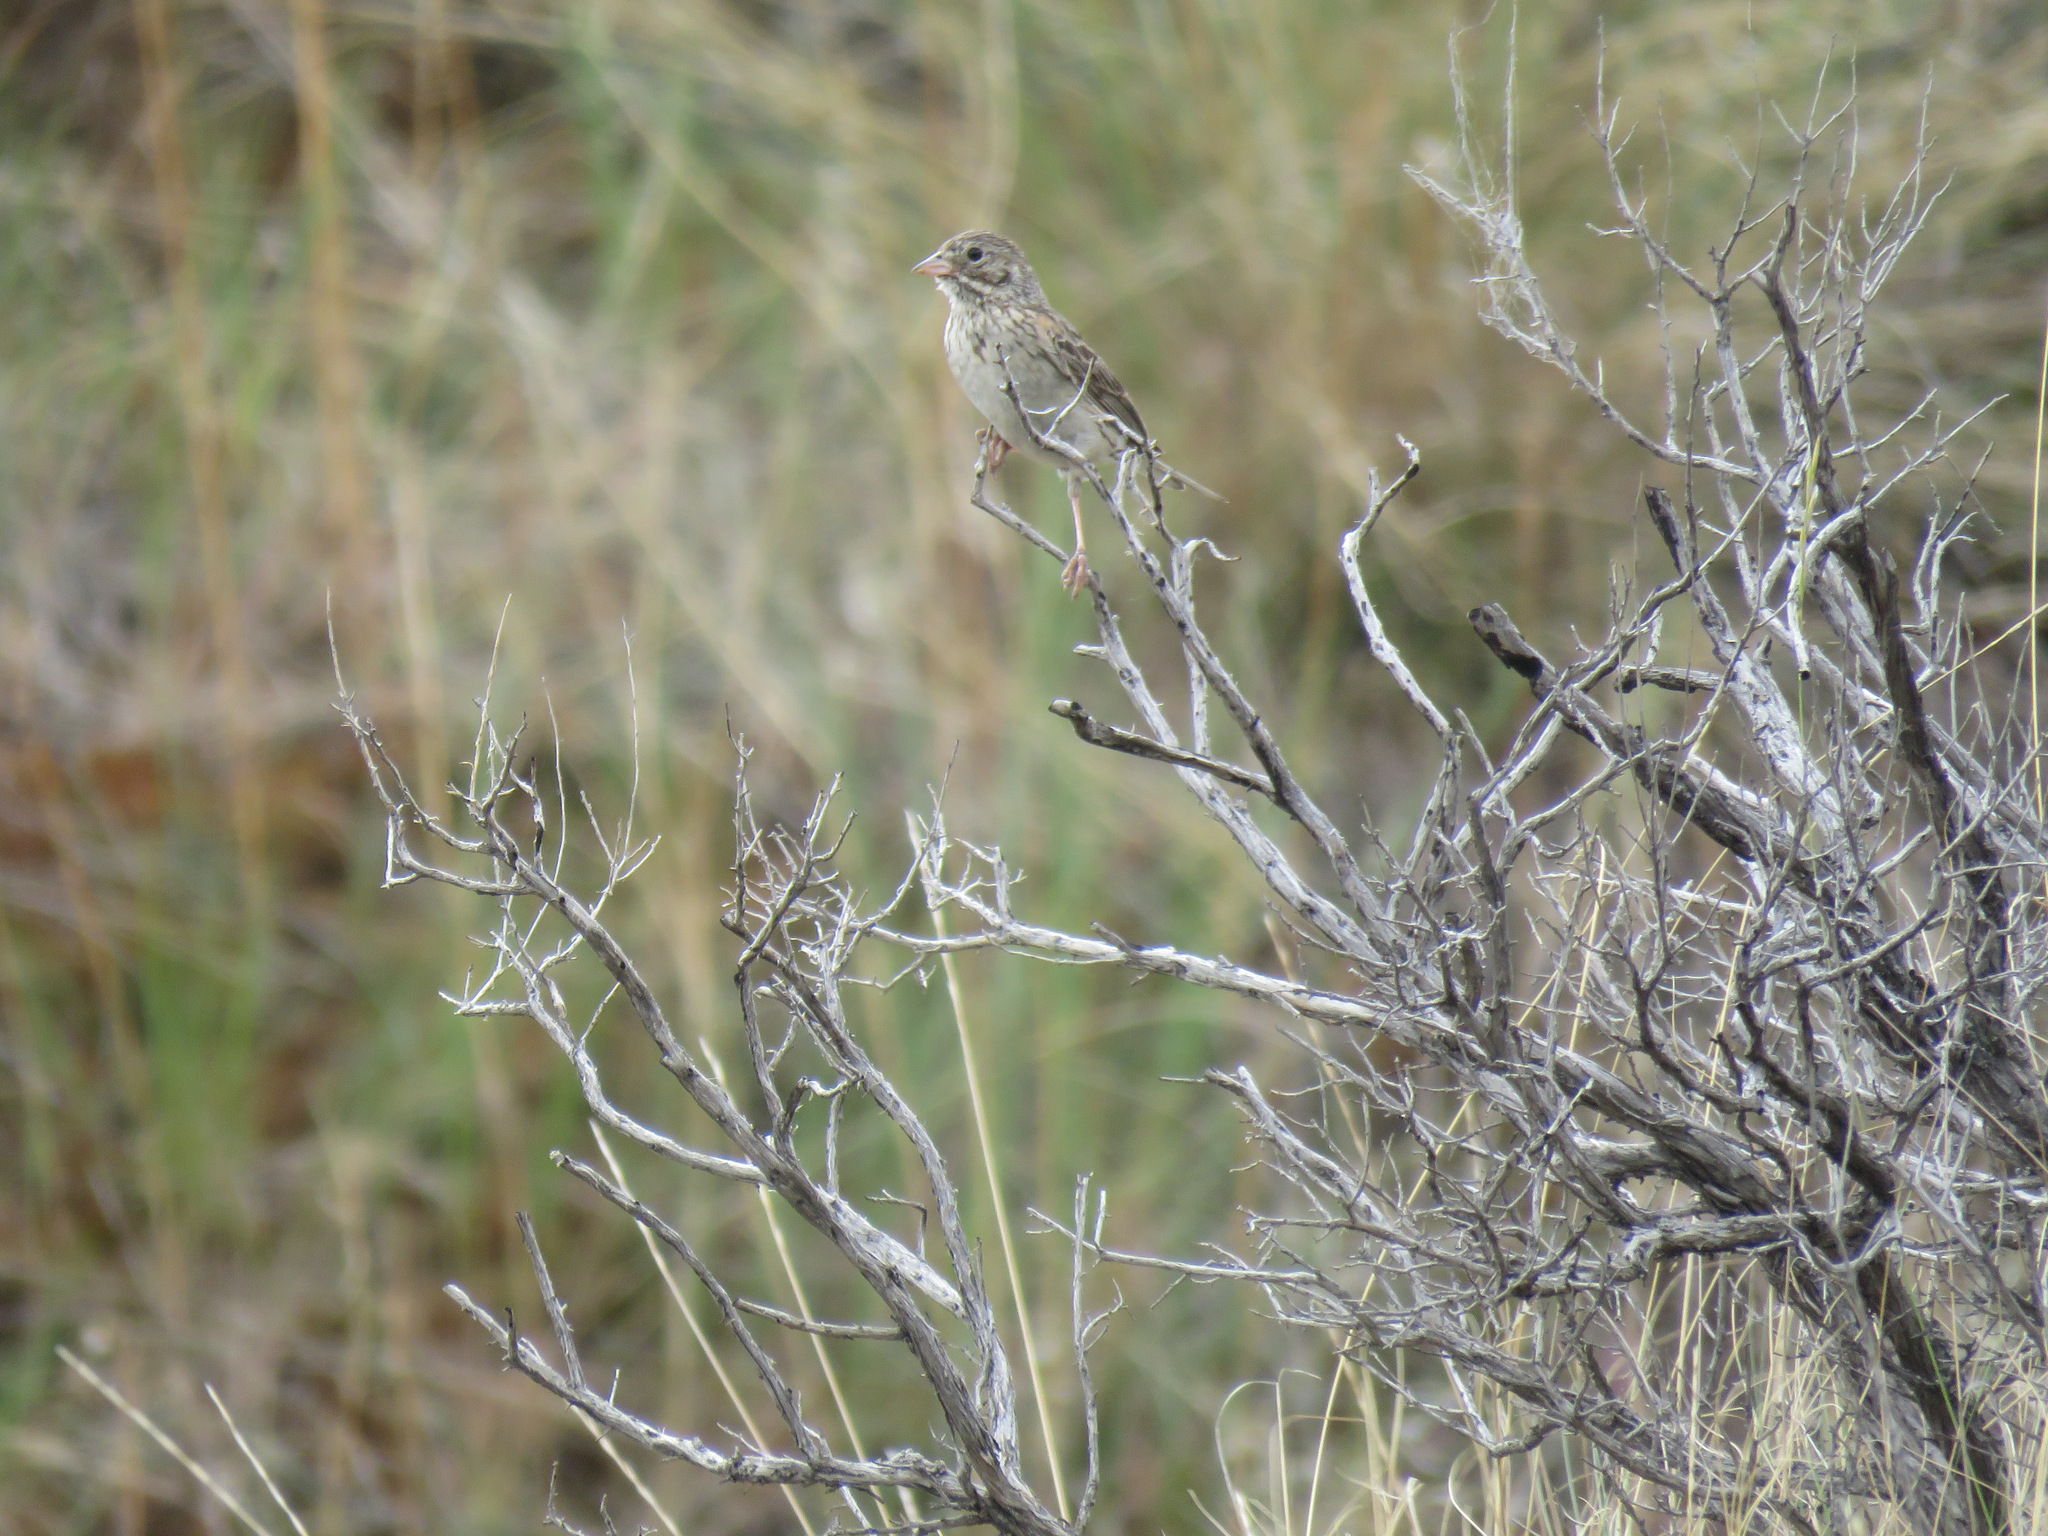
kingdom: Animalia
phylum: Chordata
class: Aves
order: Passeriformes
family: Passerellidae
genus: Pooecetes
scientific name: Pooecetes gramineus
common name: Vesper sparrow
